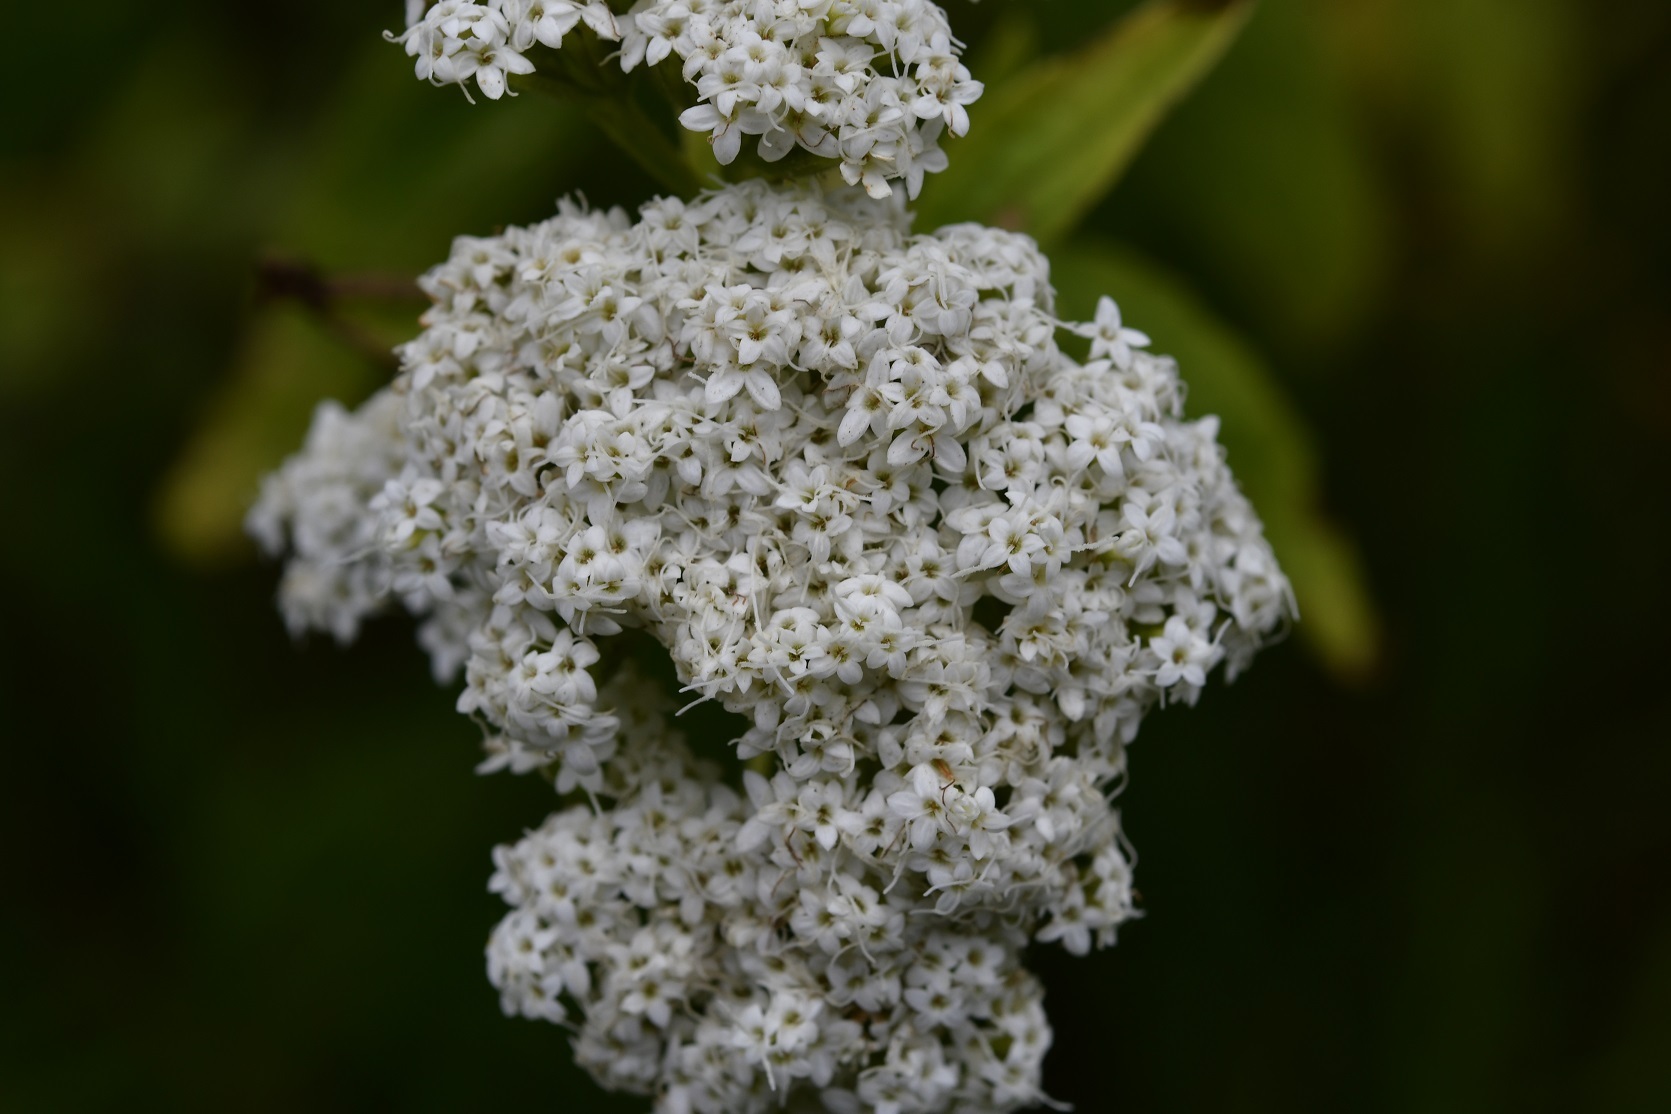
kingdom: Plantae
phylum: Tracheophyta
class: Magnoliopsida
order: Asterales
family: Asteraceae
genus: Stevia
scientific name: Stevia ovata
